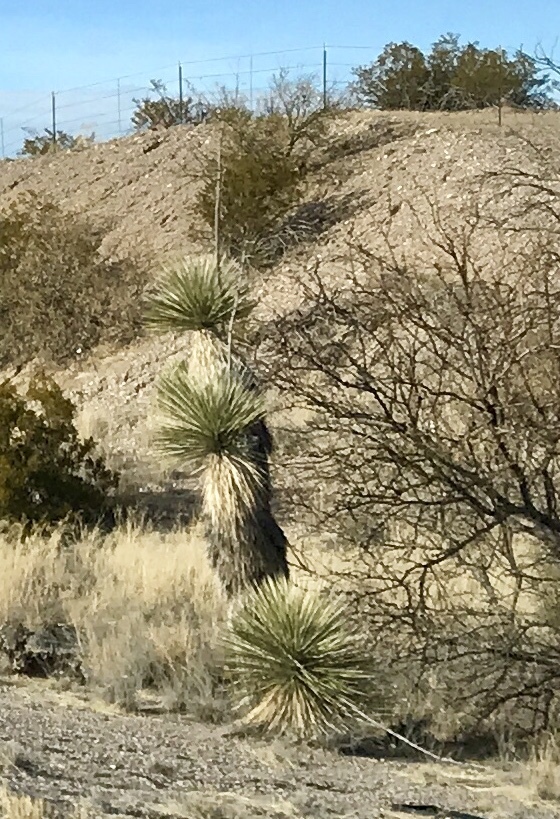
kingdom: Plantae
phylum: Tracheophyta
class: Liliopsida
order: Asparagales
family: Asparagaceae
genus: Yucca
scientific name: Yucca elata
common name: Palmella
